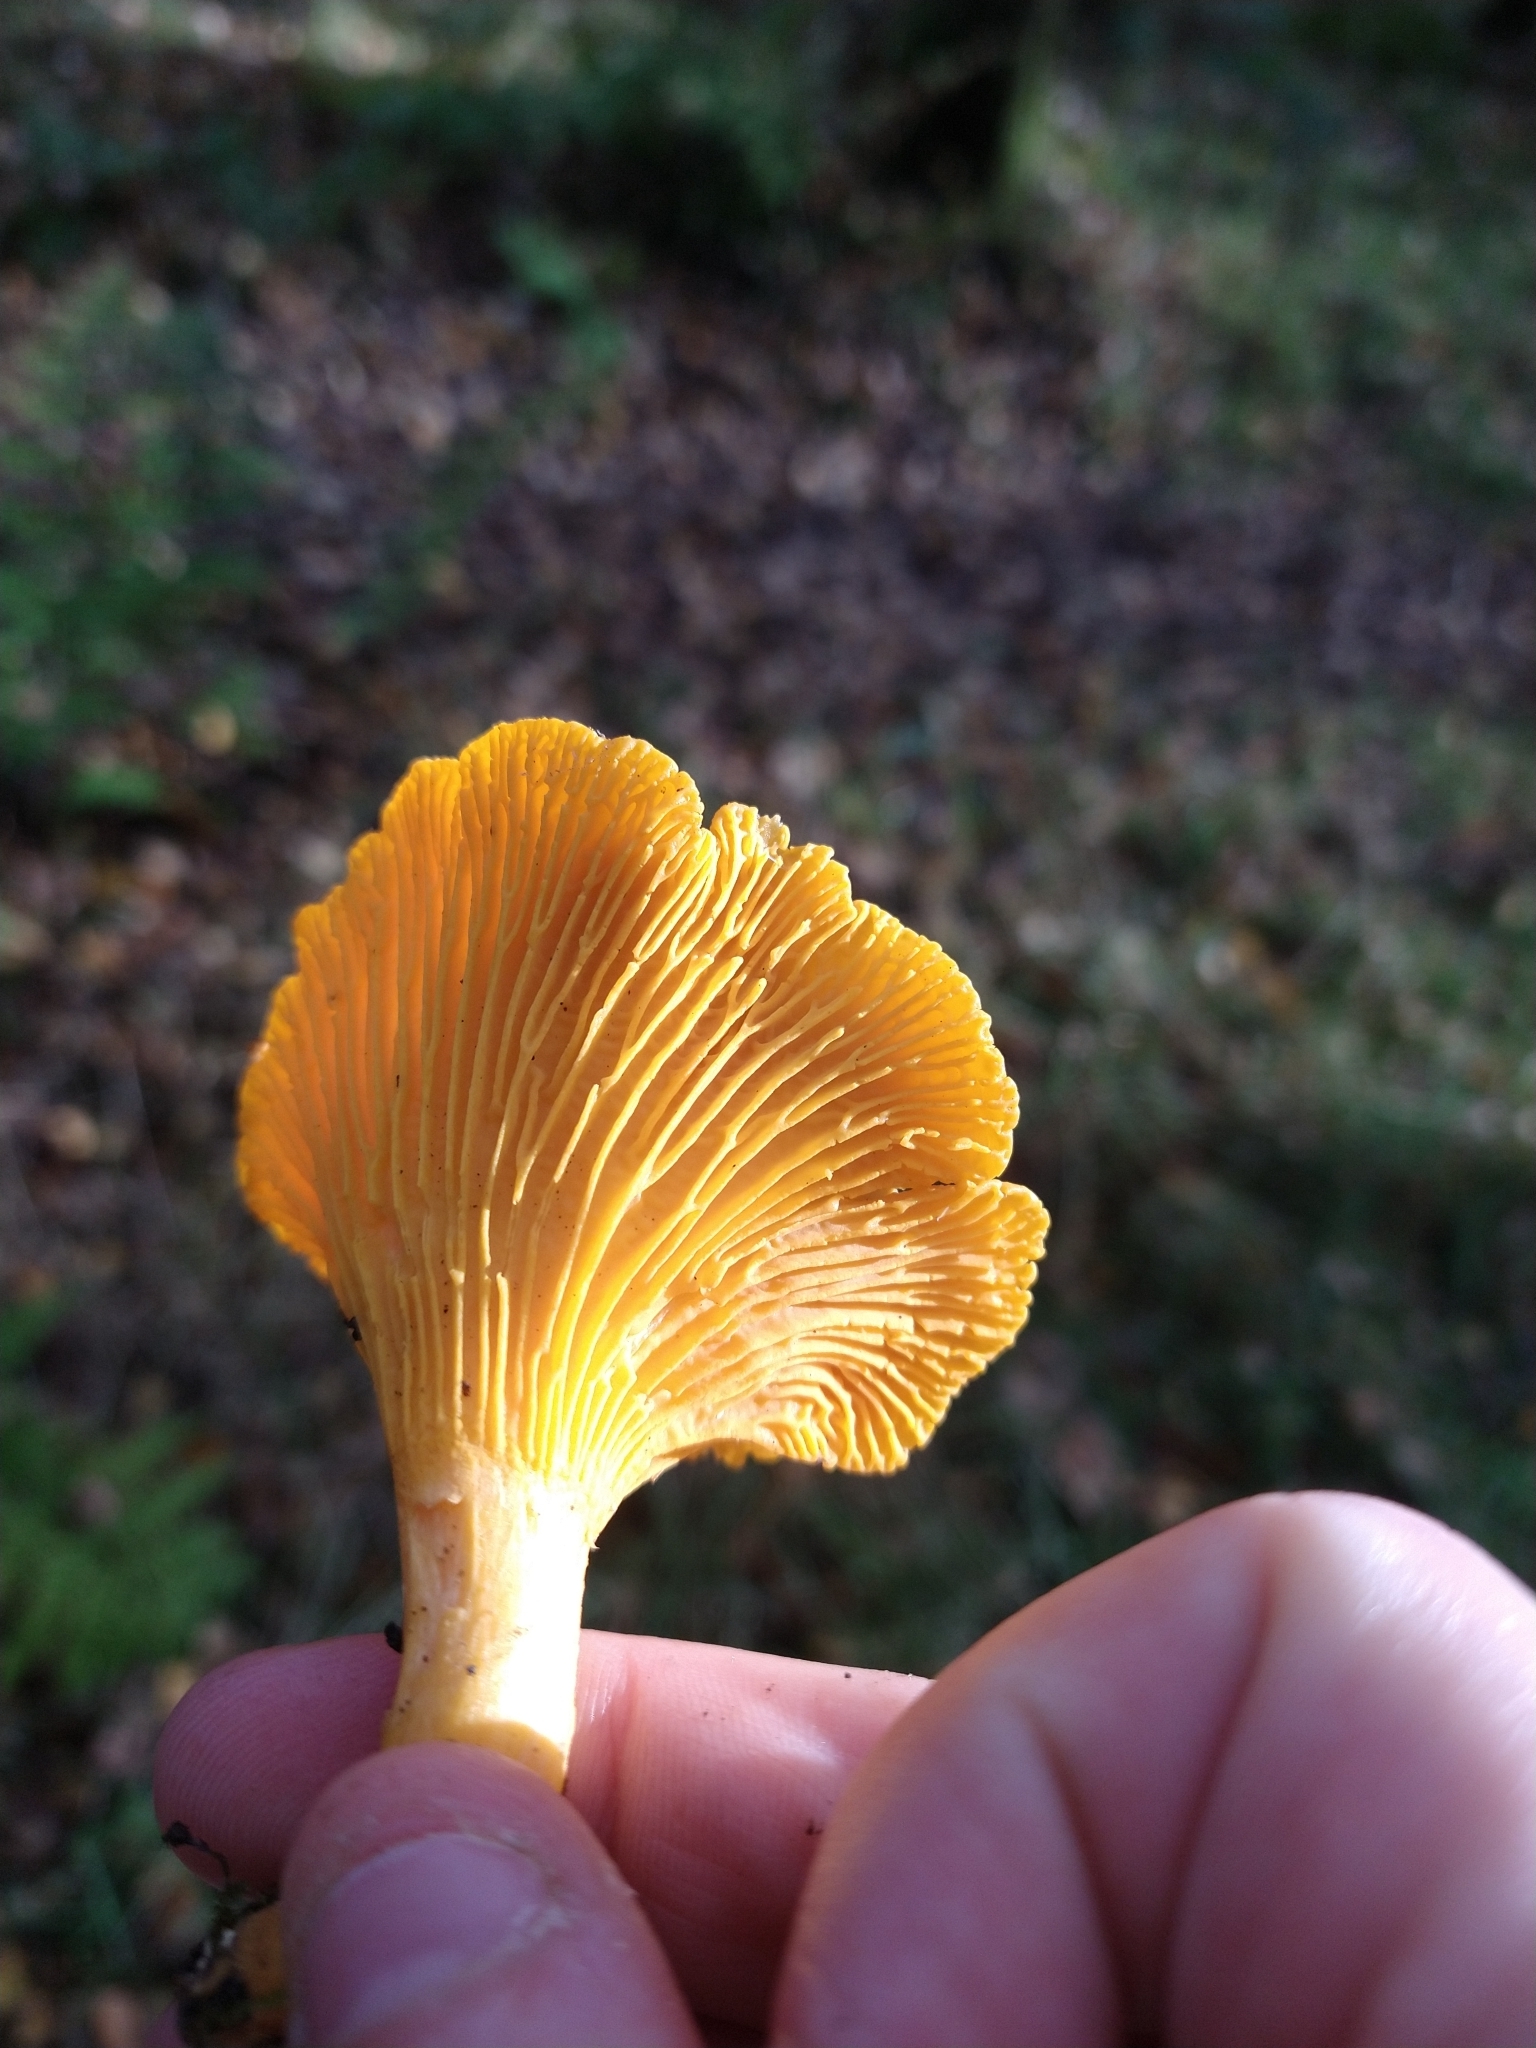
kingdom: Fungi
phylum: Basidiomycota
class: Agaricomycetes
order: Cantharellales
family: Hydnaceae
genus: Cantharellus
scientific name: Cantharellus cibarius
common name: Chanterelle
